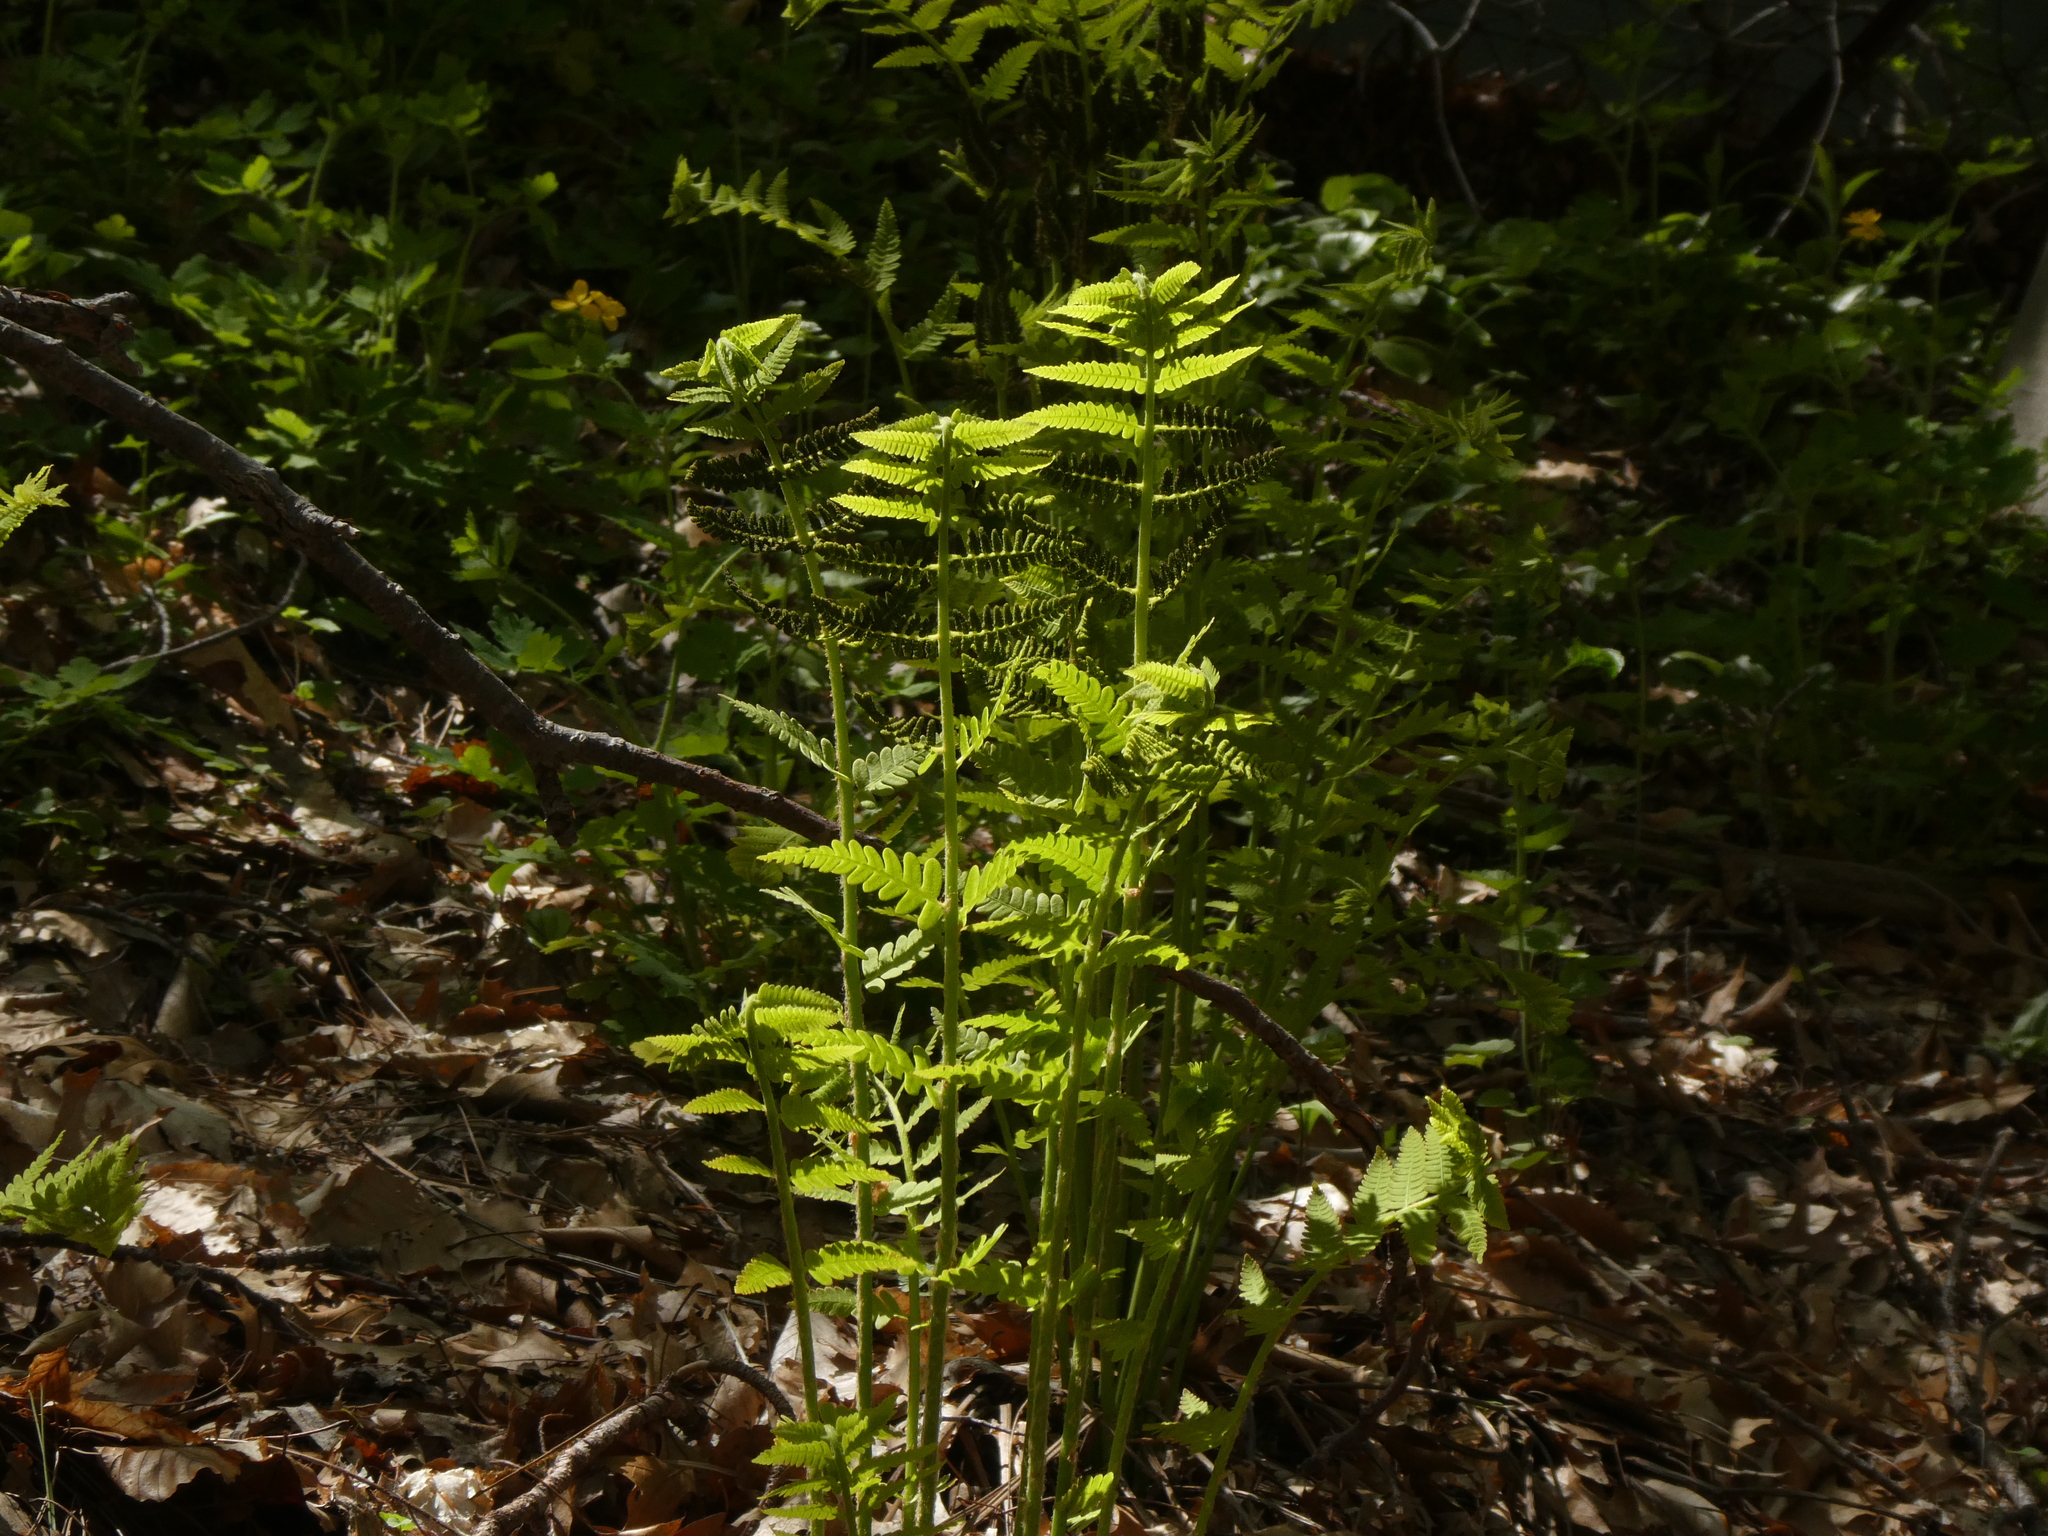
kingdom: Plantae
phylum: Tracheophyta
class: Polypodiopsida
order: Osmundales
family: Osmundaceae
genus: Claytosmunda
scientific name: Claytosmunda claytoniana
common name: Clayton's fern
